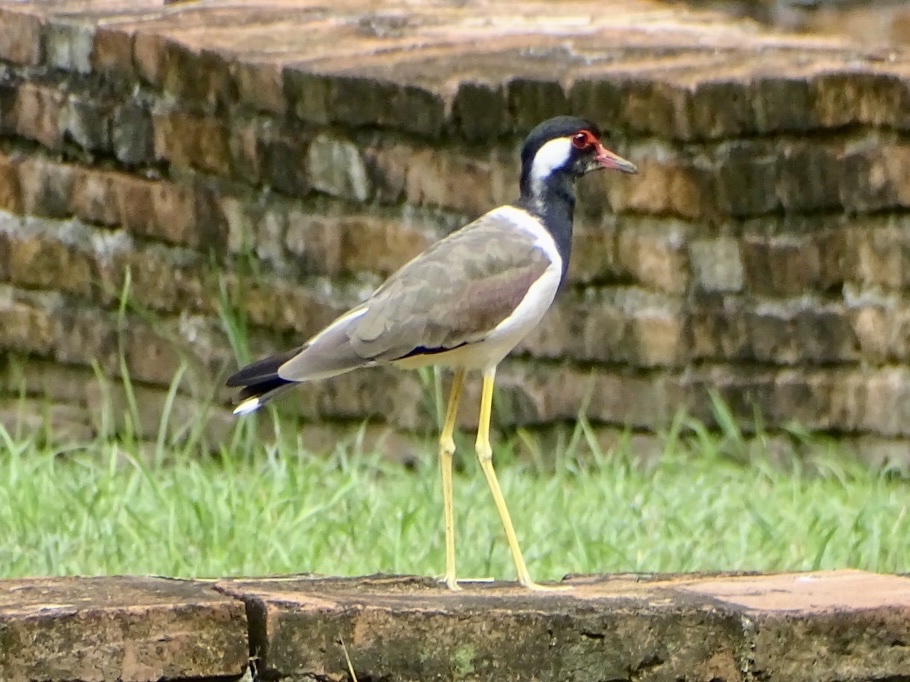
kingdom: Animalia
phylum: Chordata
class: Aves
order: Charadriiformes
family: Charadriidae
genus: Vanellus
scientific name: Vanellus indicus
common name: Red-wattled lapwing
